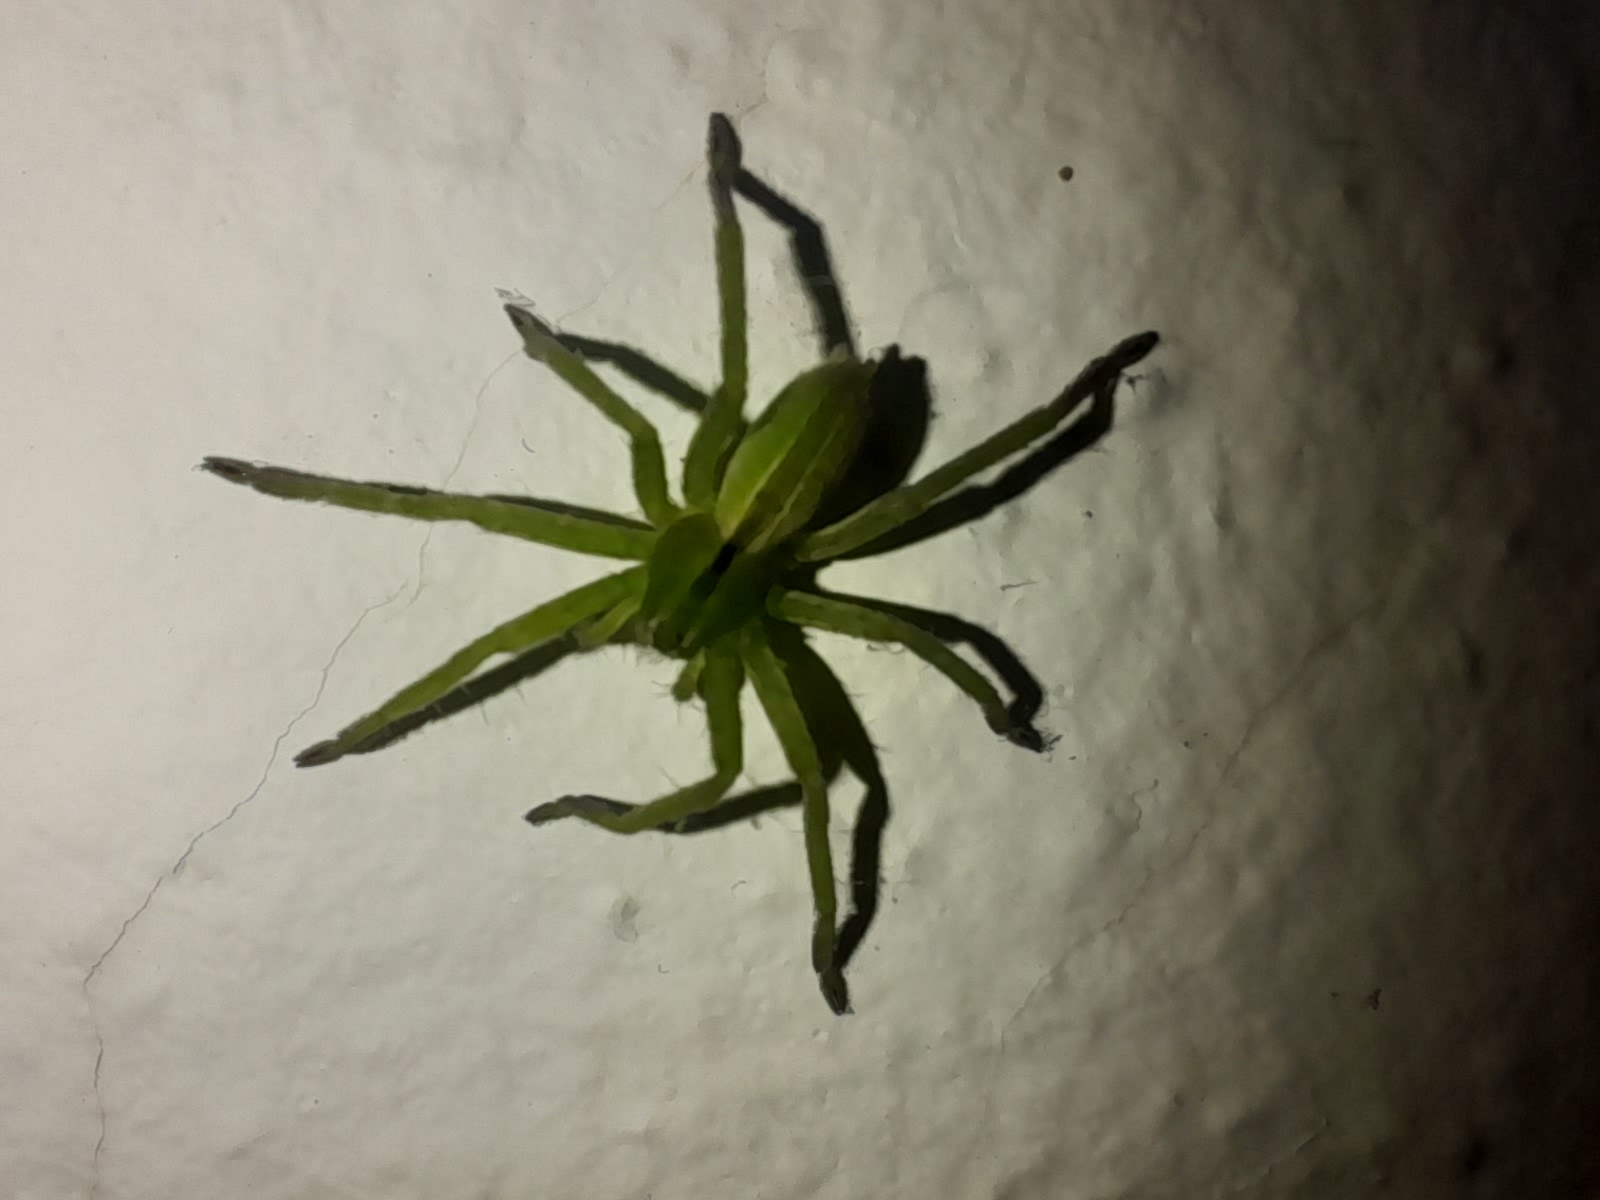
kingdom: Animalia
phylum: Arthropoda
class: Arachnida
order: Araneae
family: Sparassidae
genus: Micrommata
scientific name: Micrommata ligurina
